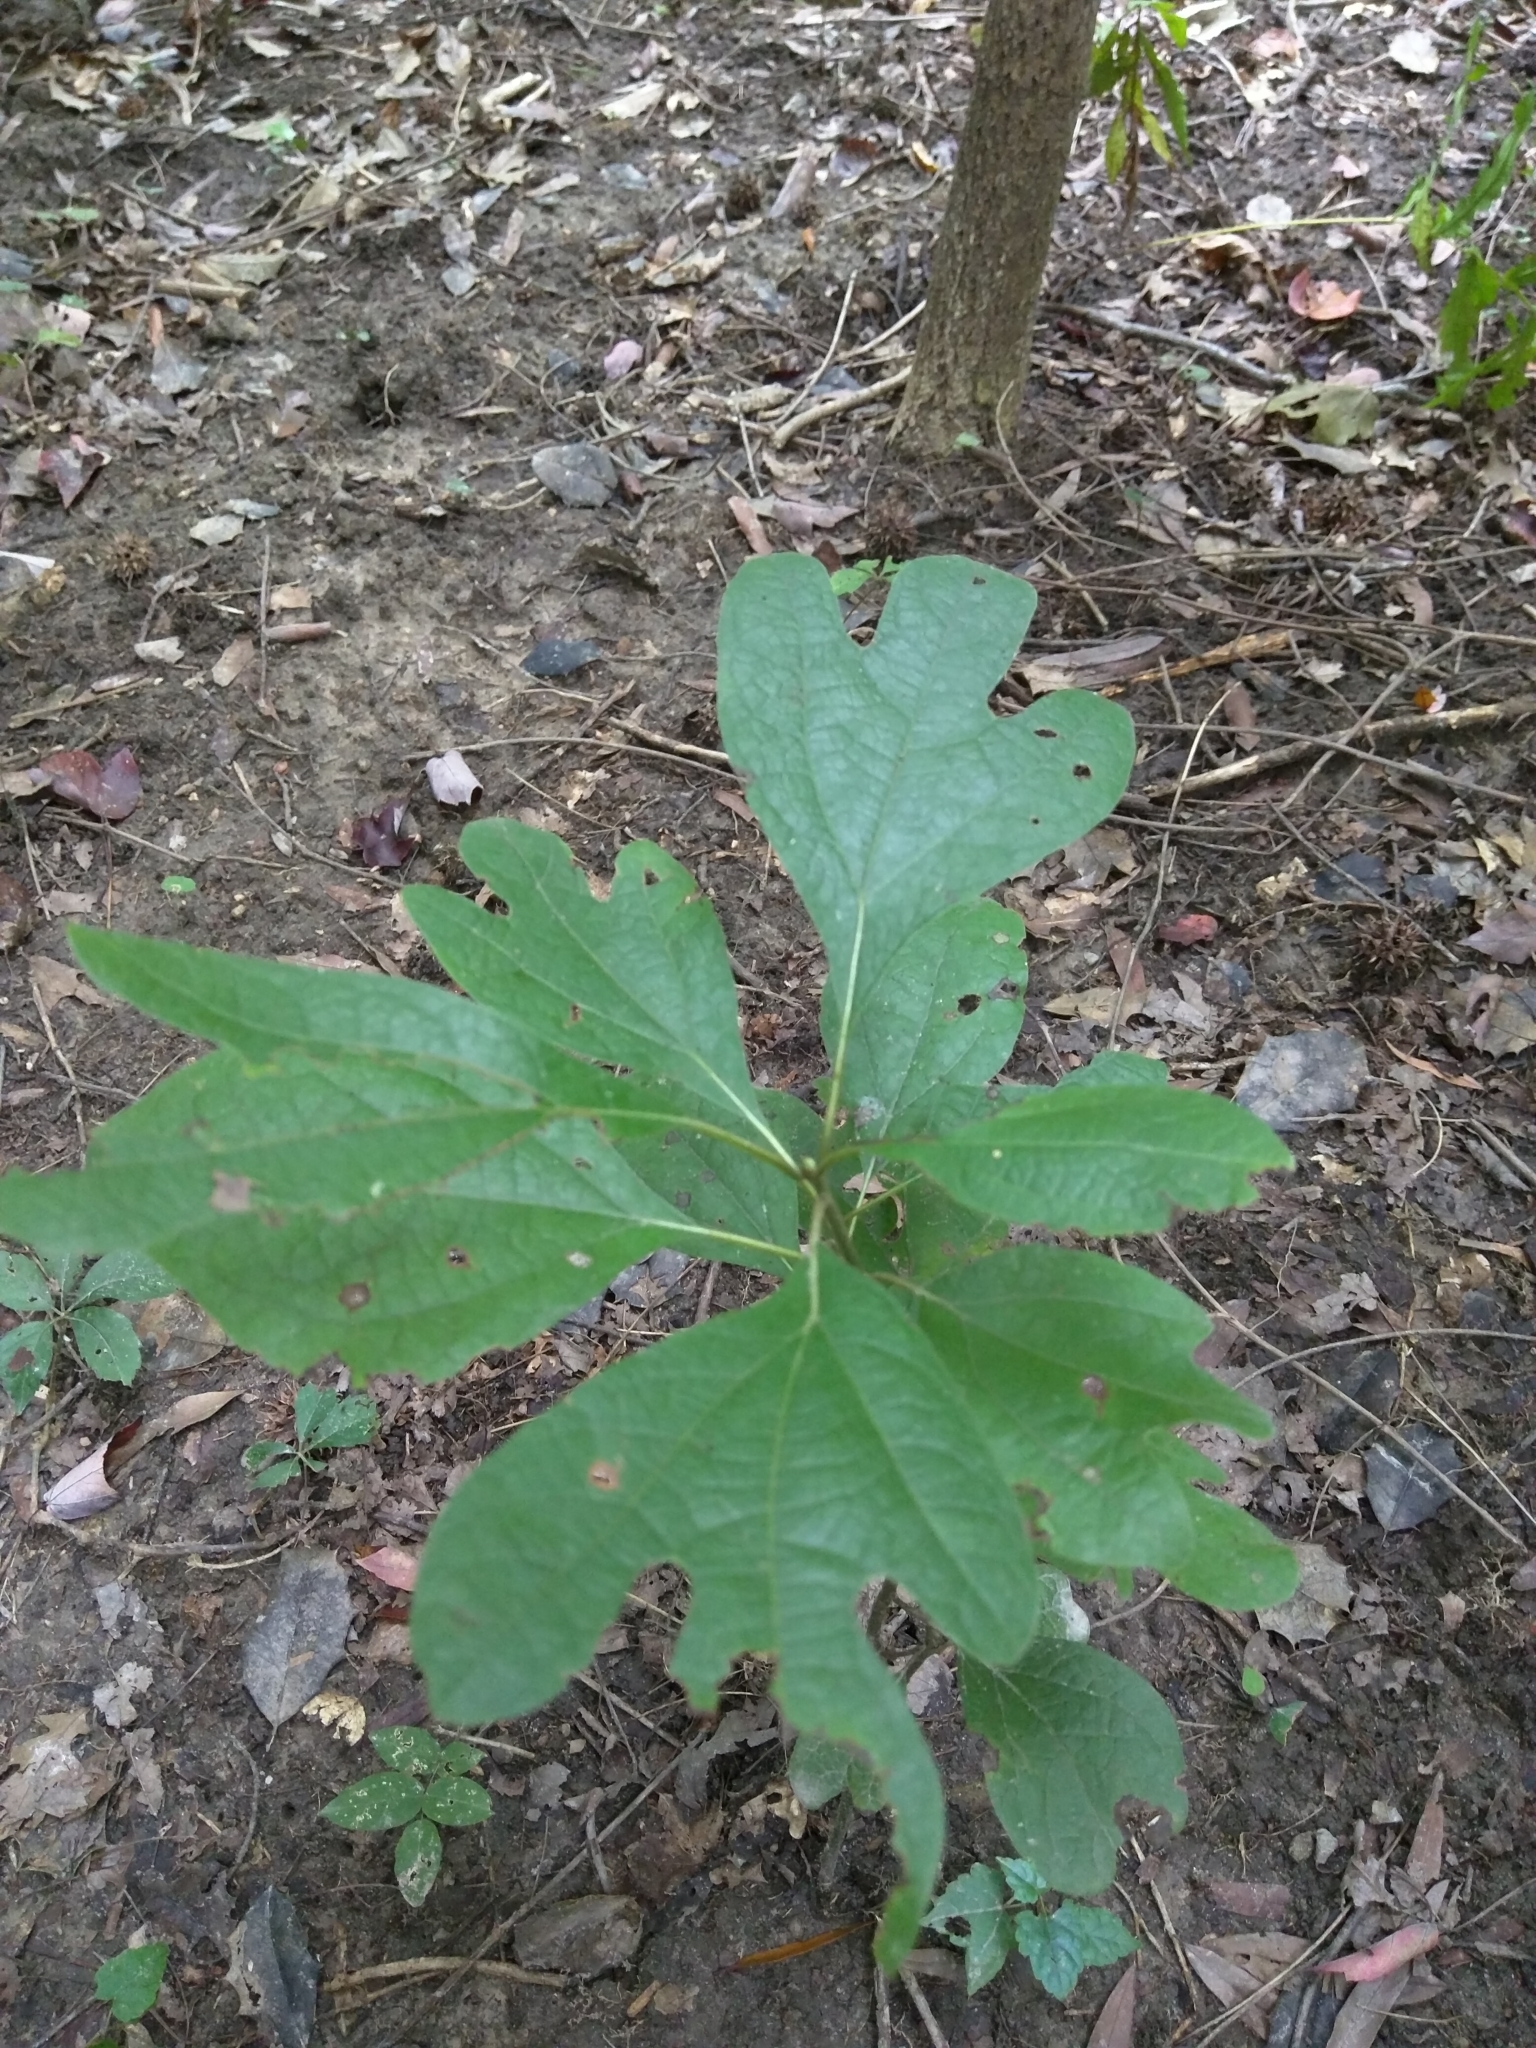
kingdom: Plantae
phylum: Tracheophyta
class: Magnoliopsida
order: Laurales
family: Lauraceae
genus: Sassafras
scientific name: Sassafras albidum
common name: Sassafras
